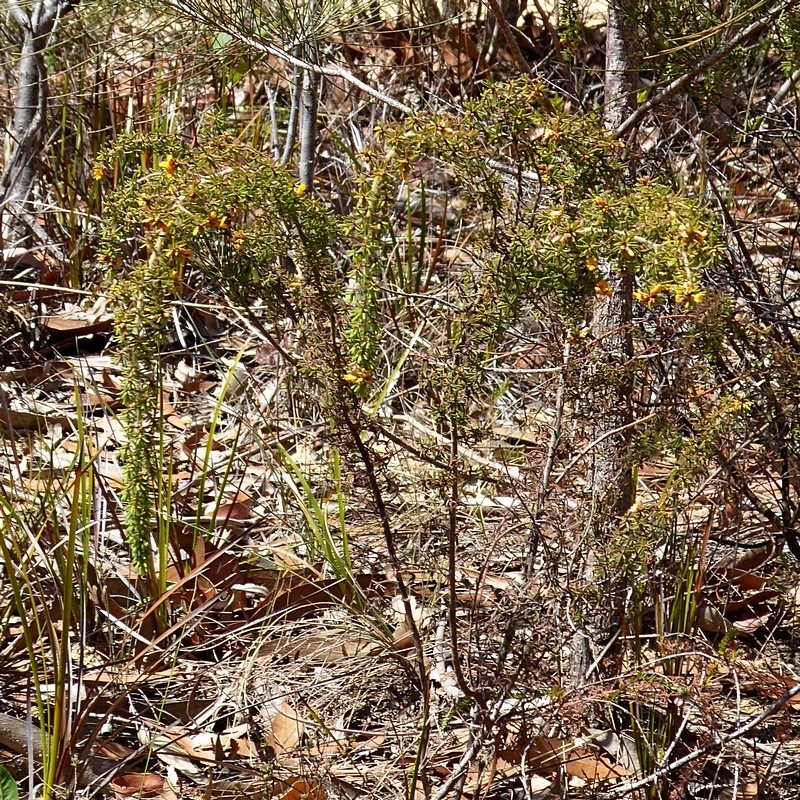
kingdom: Plantae
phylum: Tracheophyta
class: Magnoliopsida
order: Fabales
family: Fabaceae
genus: Pultenaea
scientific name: Pultenaea hispidula
